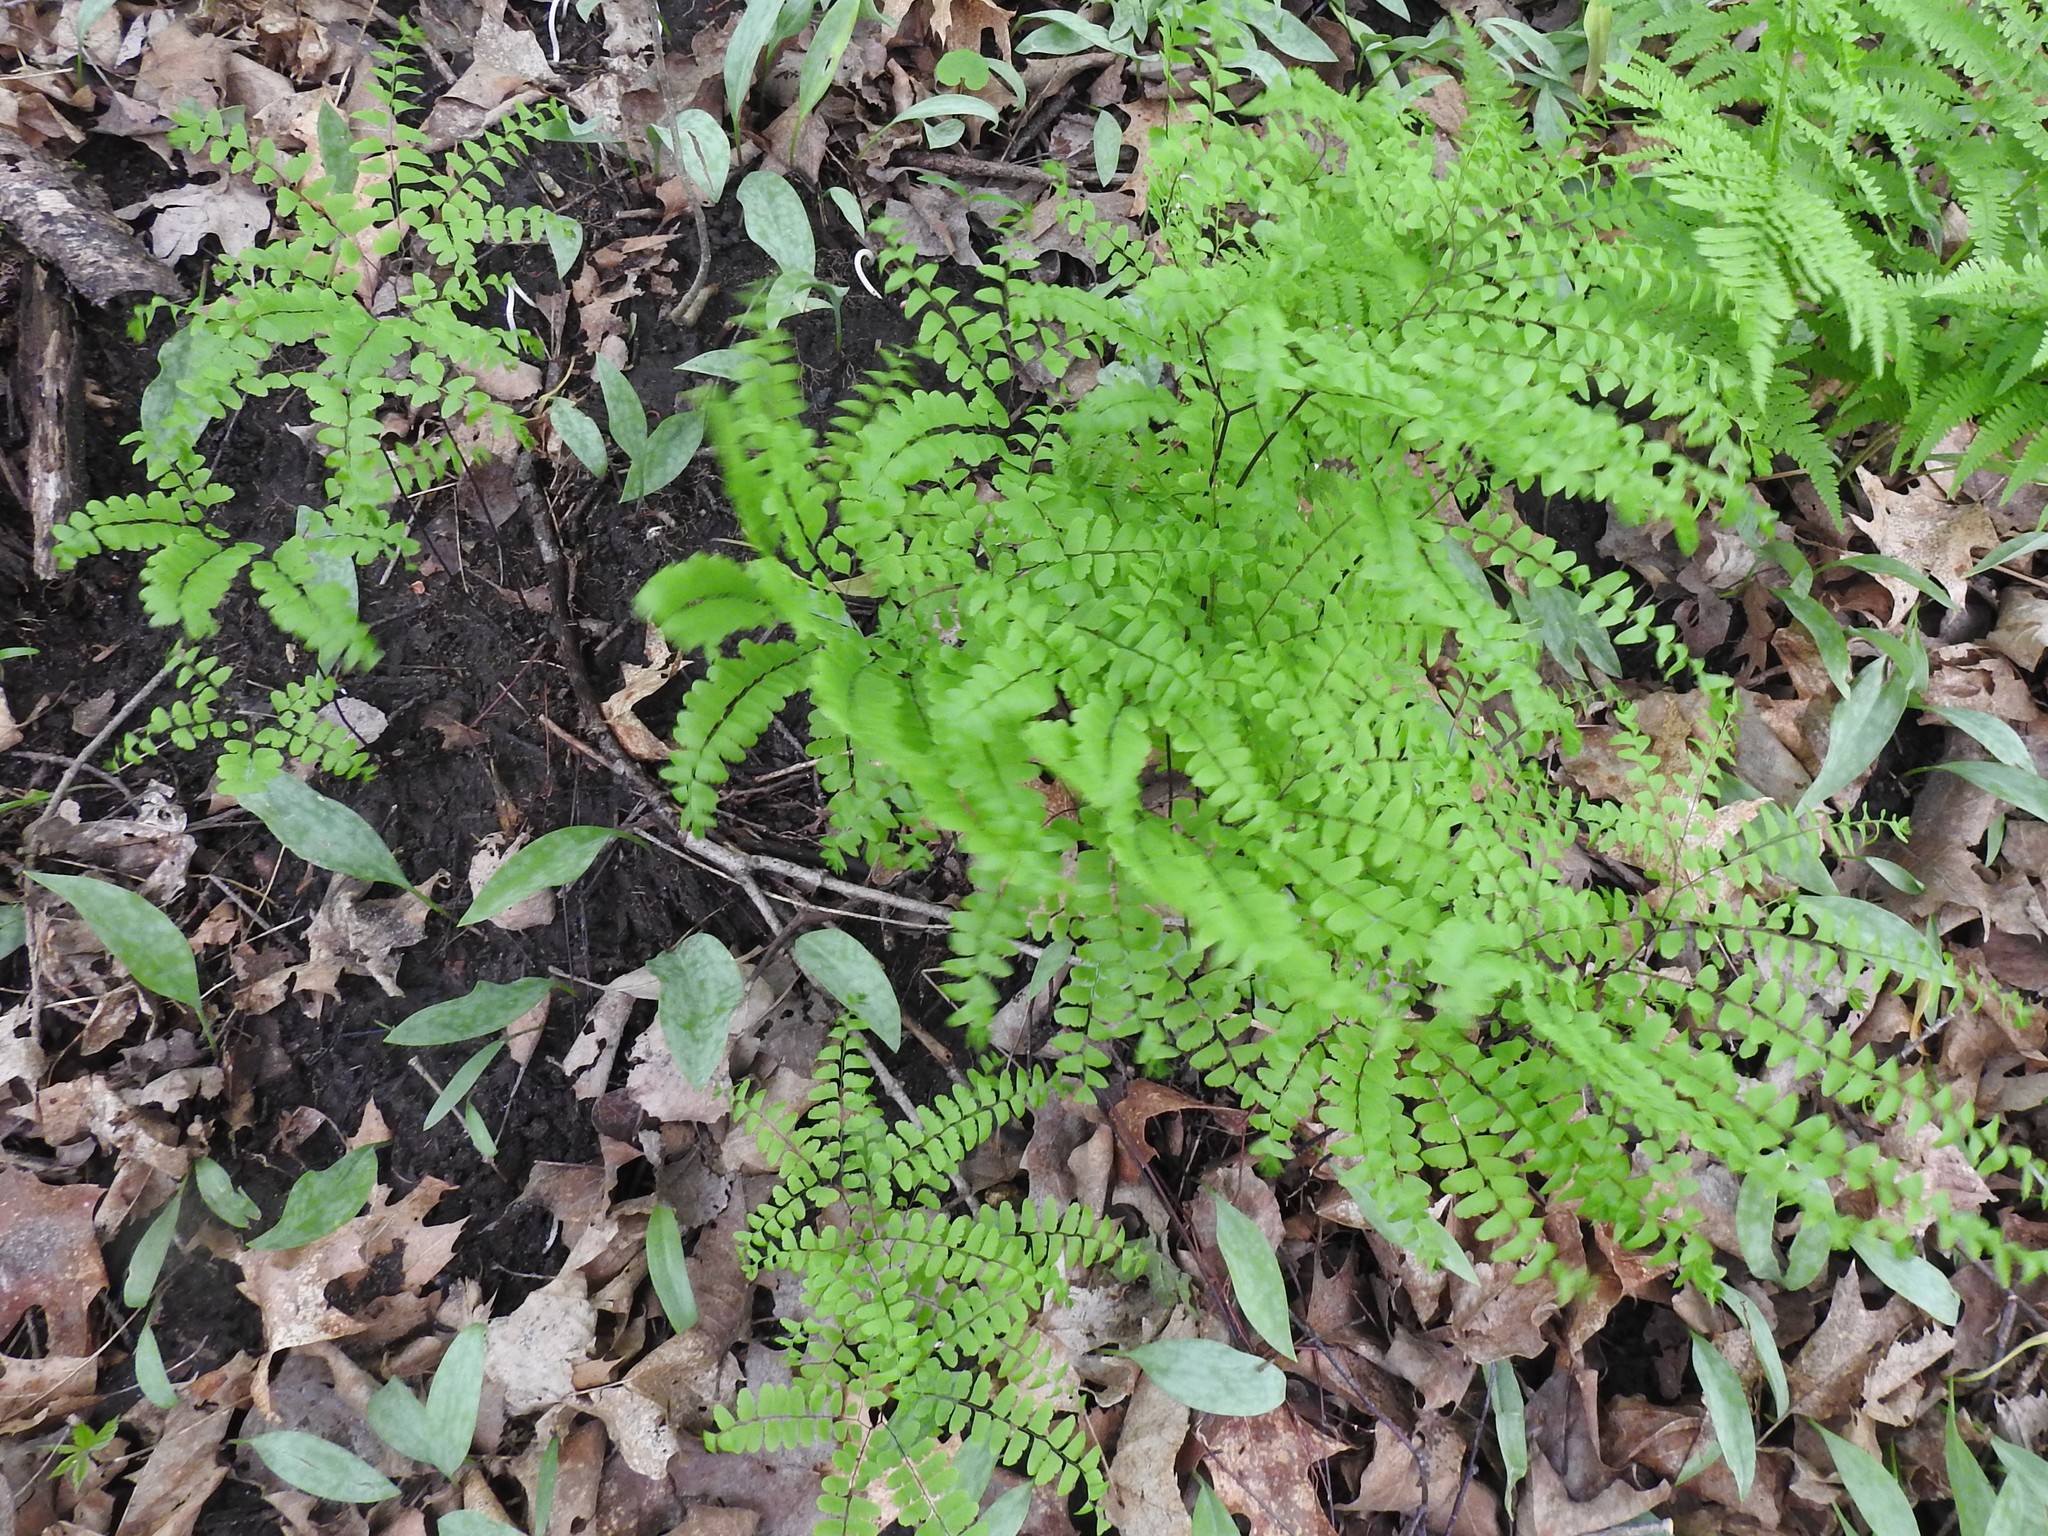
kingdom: Plantae
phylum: Tracheophyta
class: Polypodiopsida
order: Polypodiales
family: Pteridaceae
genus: Adiantum
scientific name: Adiantum pedatum
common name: Five-finger fern
